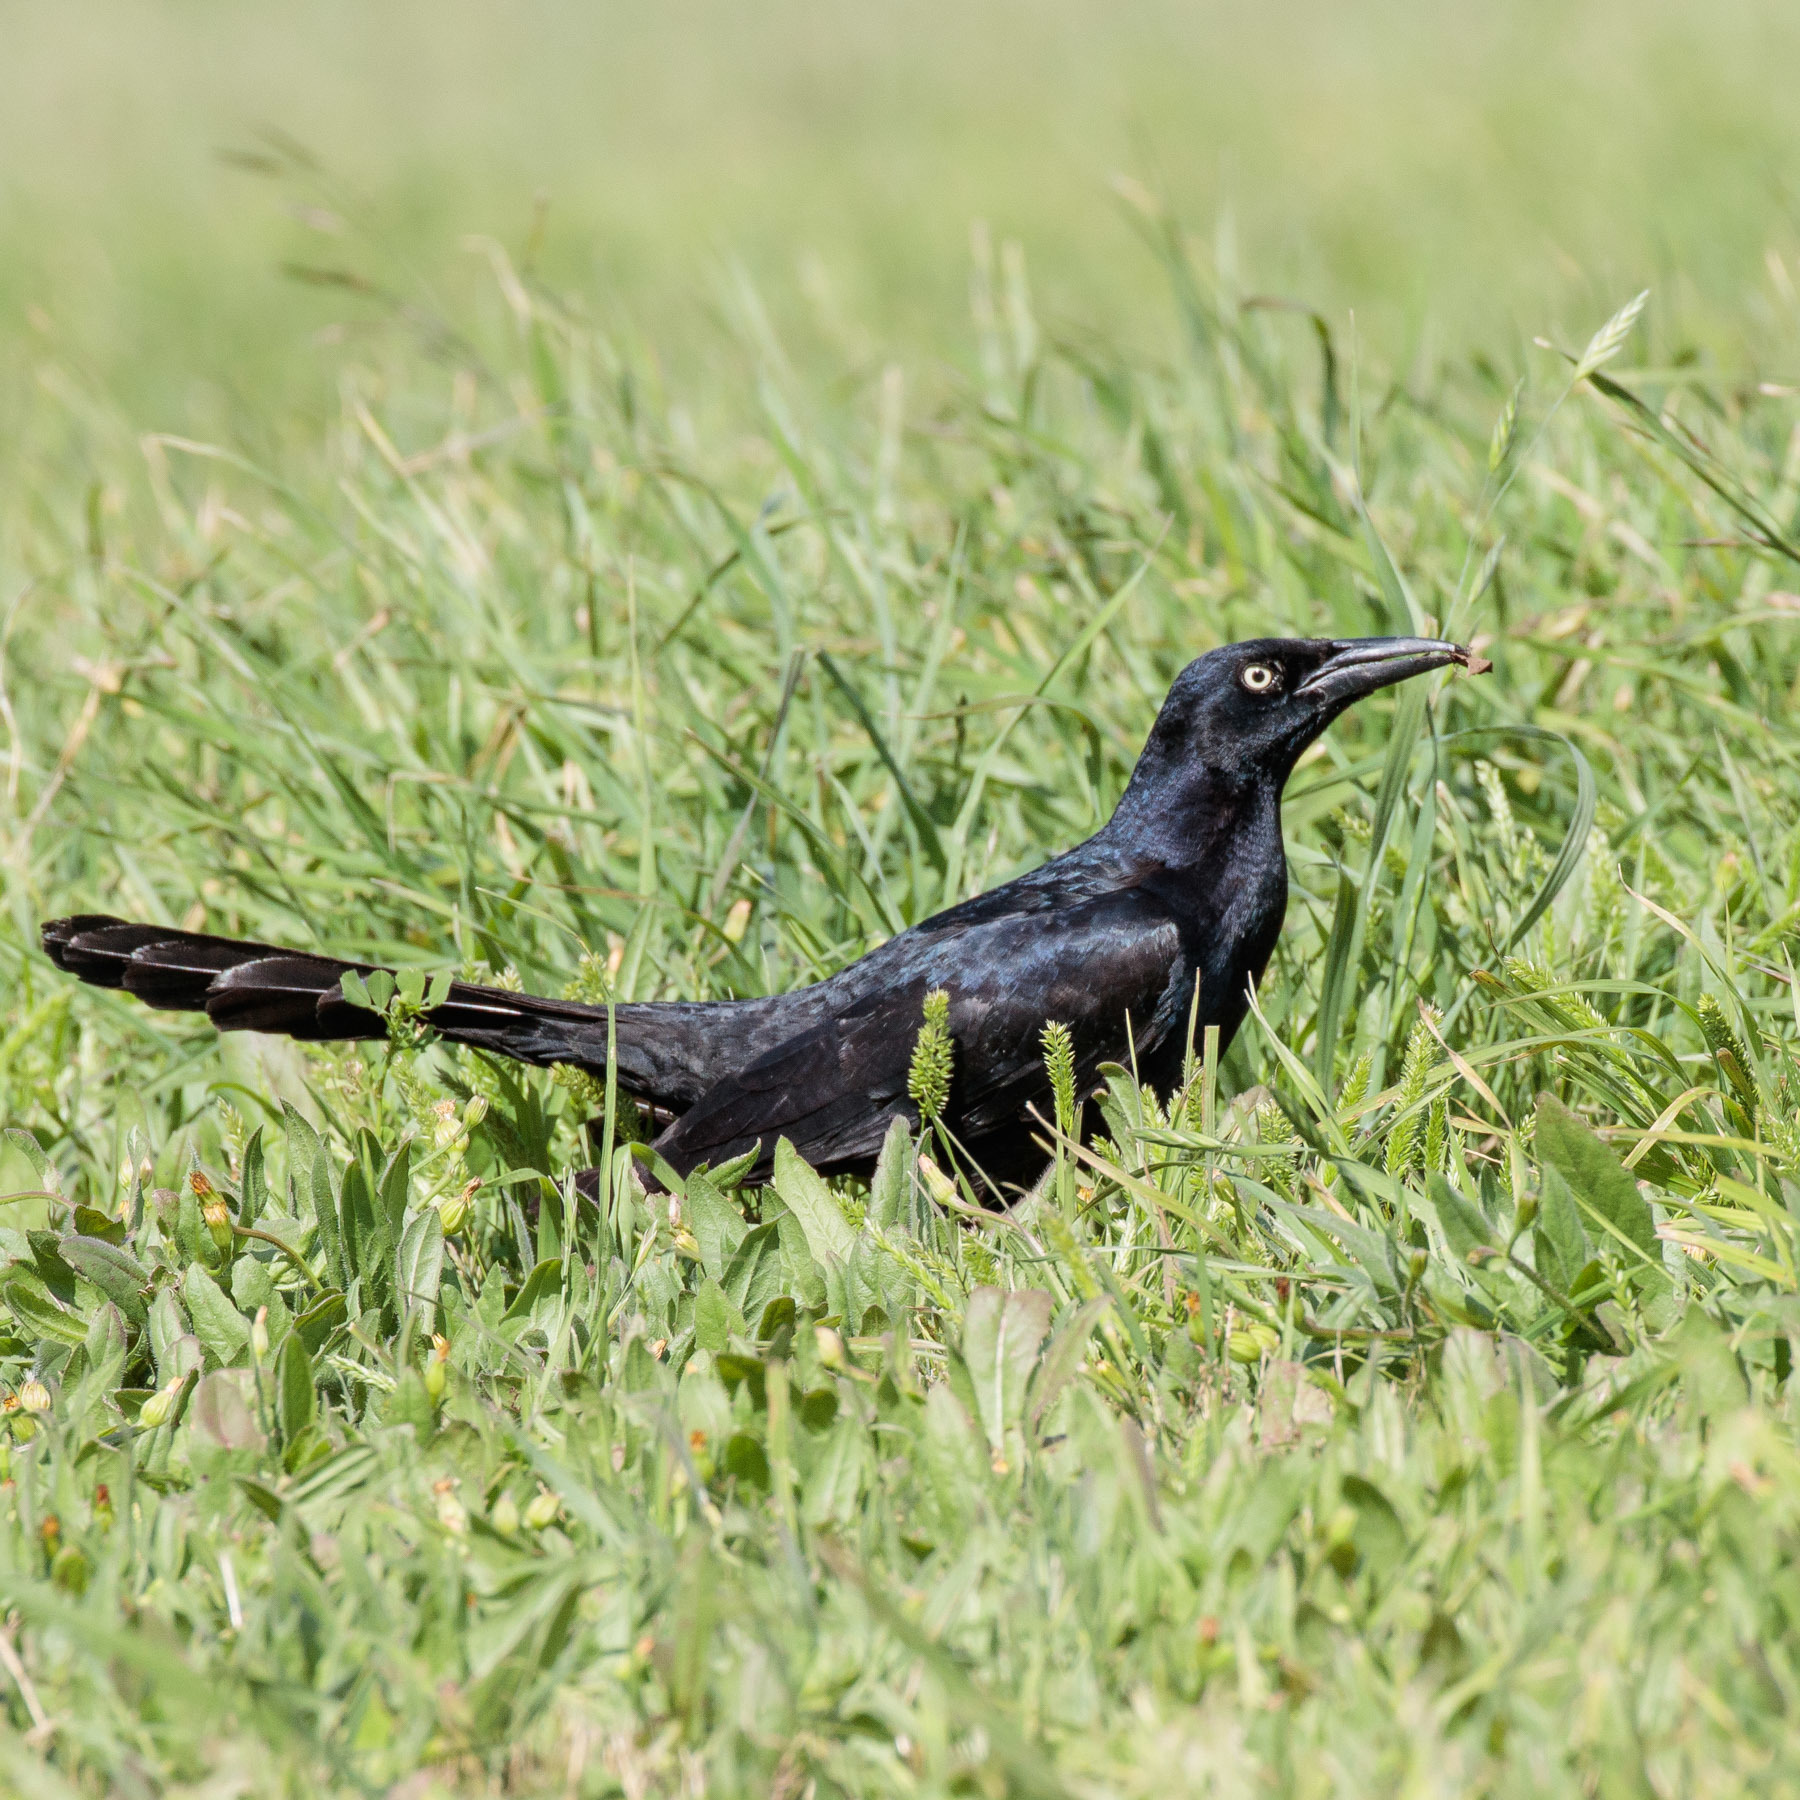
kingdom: Animalia
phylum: Chordata
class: Aves
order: Passeriformes
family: Icteridae
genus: Quiscalus
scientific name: Quiscalus mexicanus
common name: Great-tailed grackle
